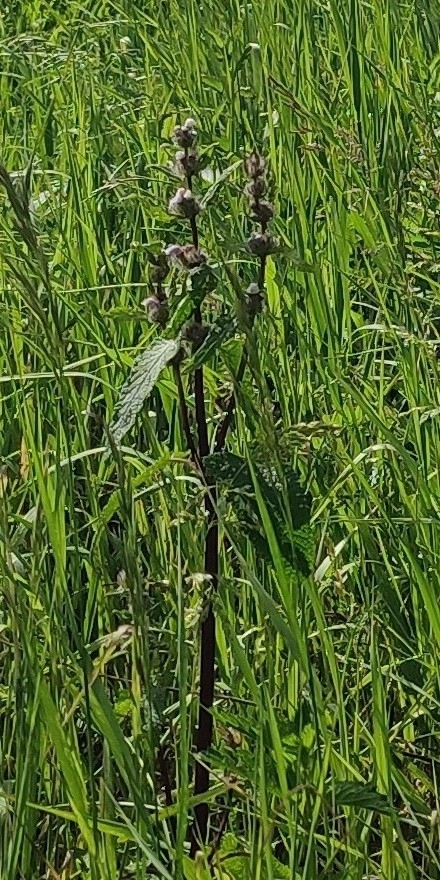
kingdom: Plantae
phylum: Tracheophyta
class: Magnoliopsida
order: Lamiales
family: Lamiaceae
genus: Phlomoides
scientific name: Phlomoides tuberosa
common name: Tuberous jerusalem sage
